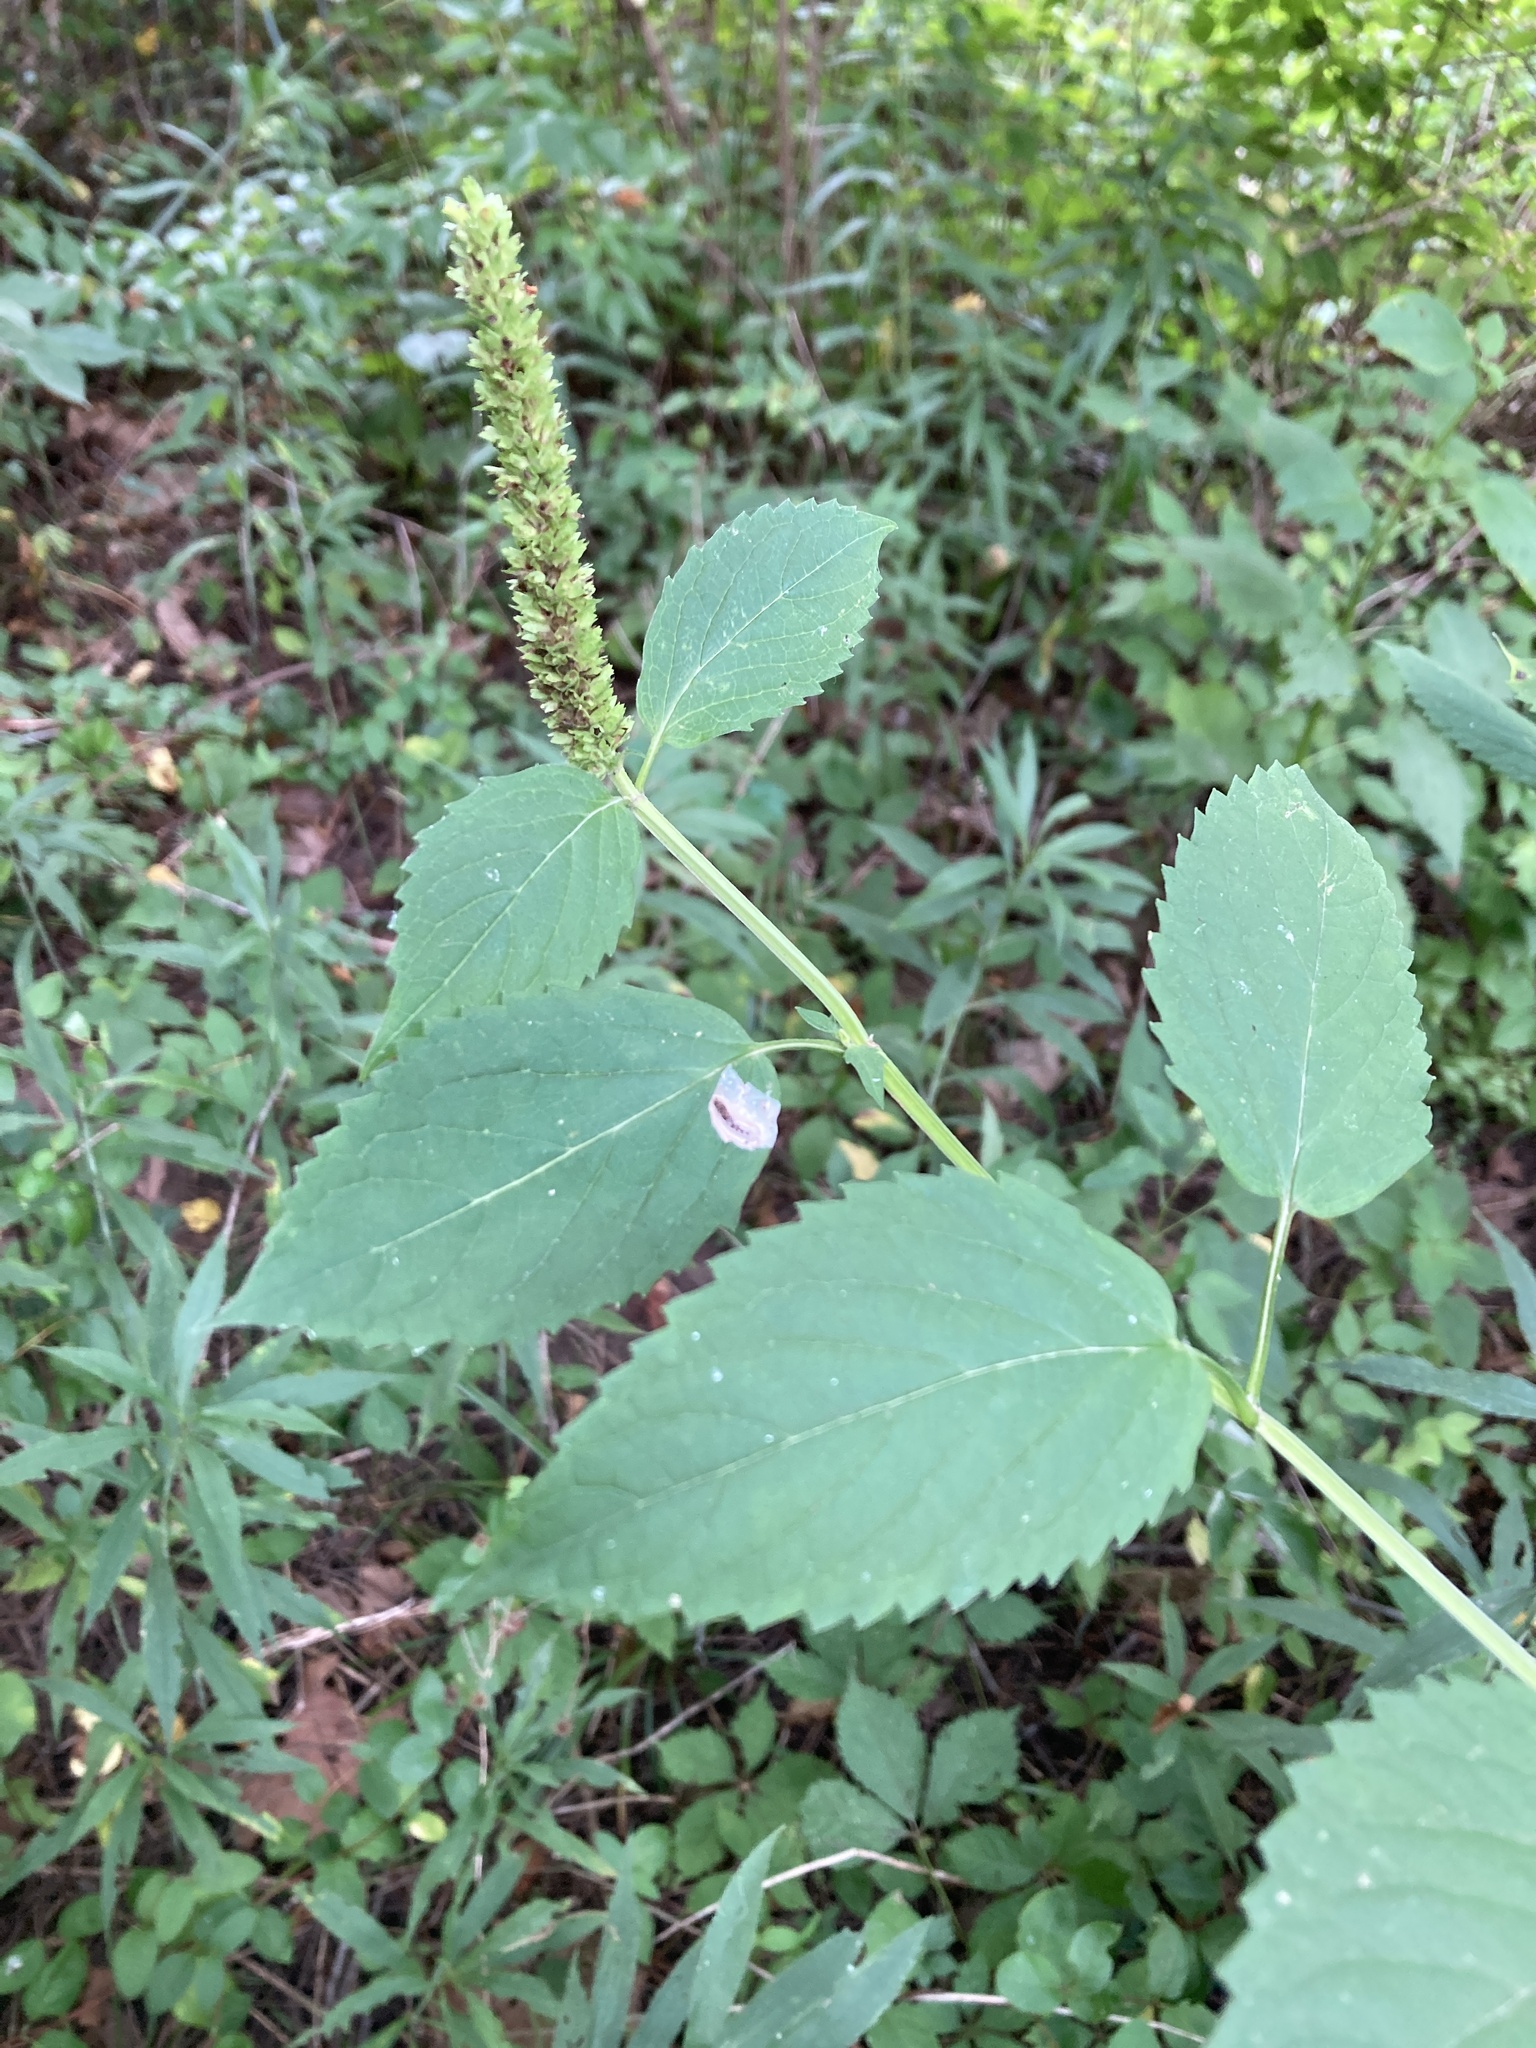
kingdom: Plantae
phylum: Tracheophyta
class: Magnoliopsida
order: Lamiales
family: Lamiaceae
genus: Agastache
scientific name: Agastache nepetoides
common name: Catnip giant hyssop
